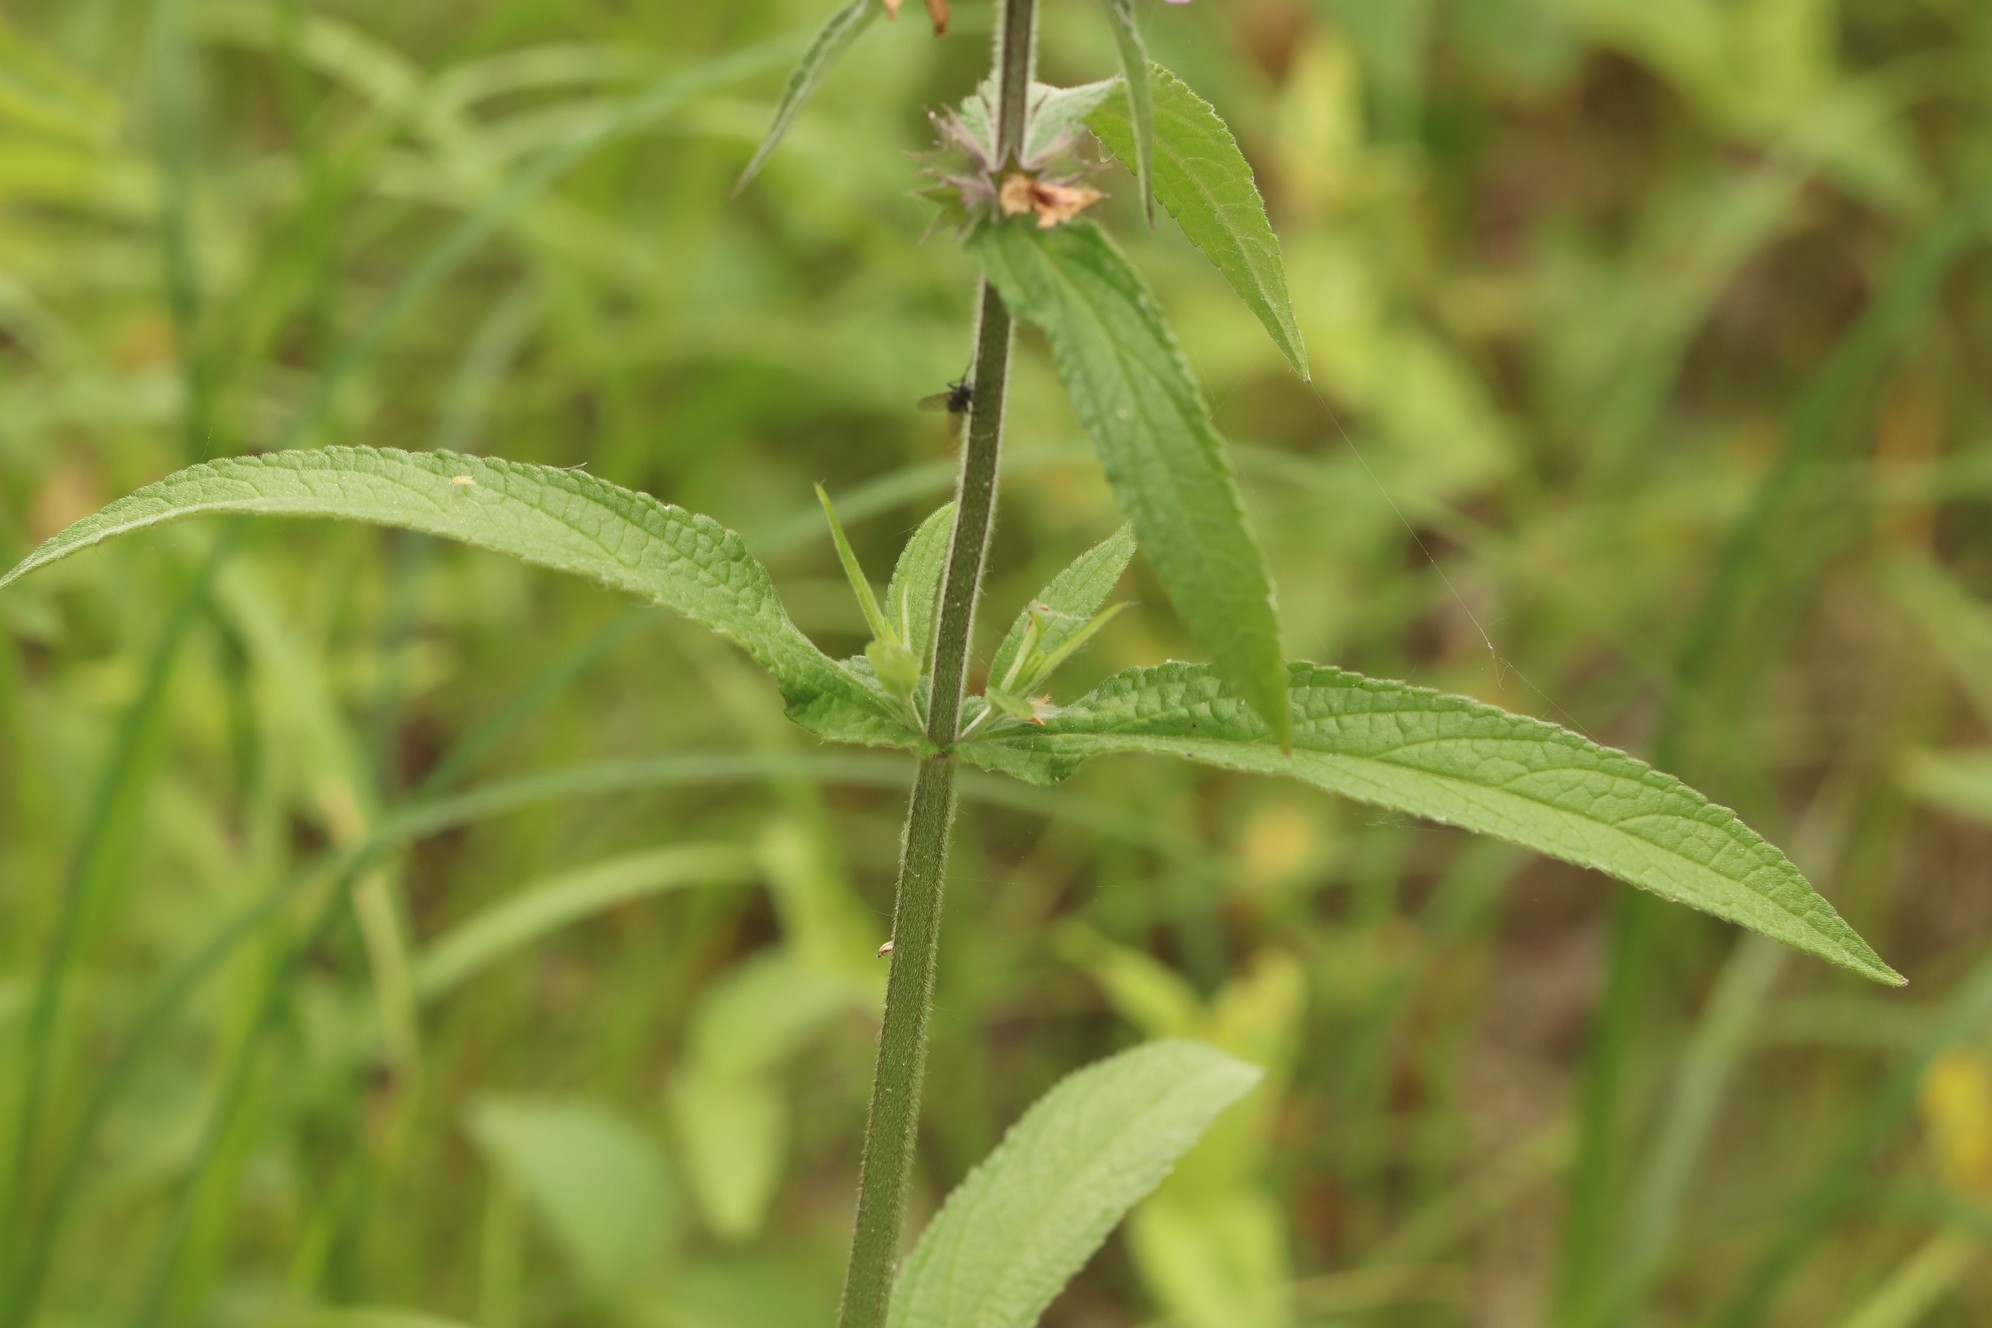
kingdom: Animalia
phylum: Arthropoda
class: Insecta
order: Lepidoptera
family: Pieridae
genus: Aporia
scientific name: Aporia crataegi
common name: Black-veined white
